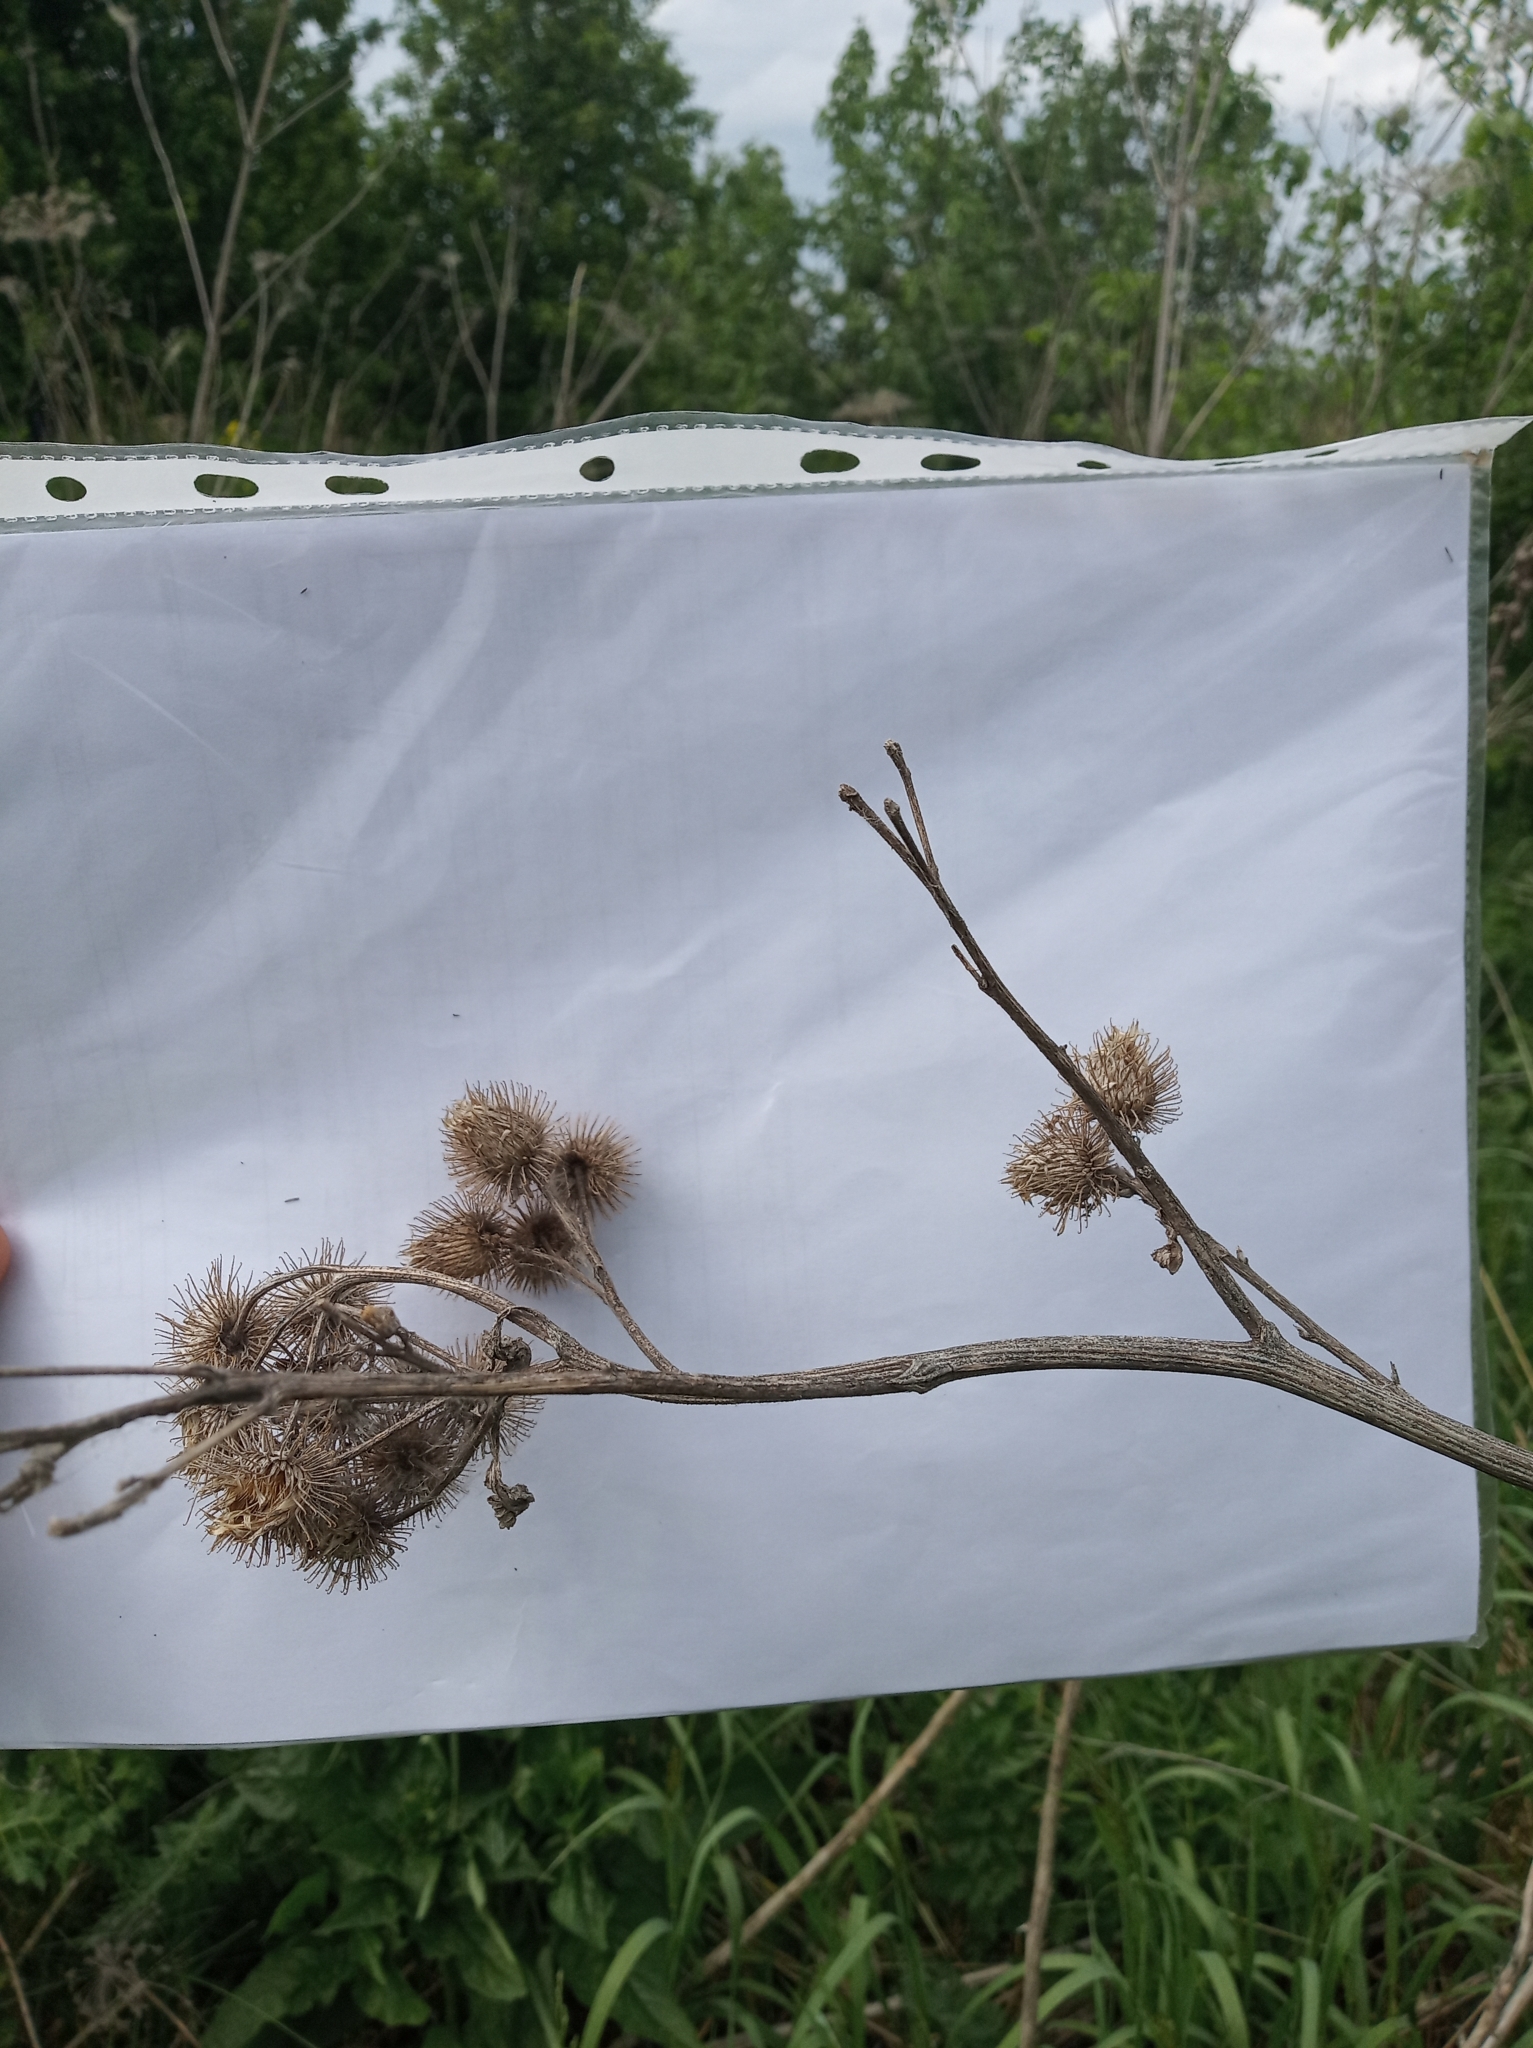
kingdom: Plantae
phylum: Tracheophyta
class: Magnoliopsida
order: Asterales
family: Asteraceae
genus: Arctium
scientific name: Arctium tomentosum
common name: Woolly burdock
